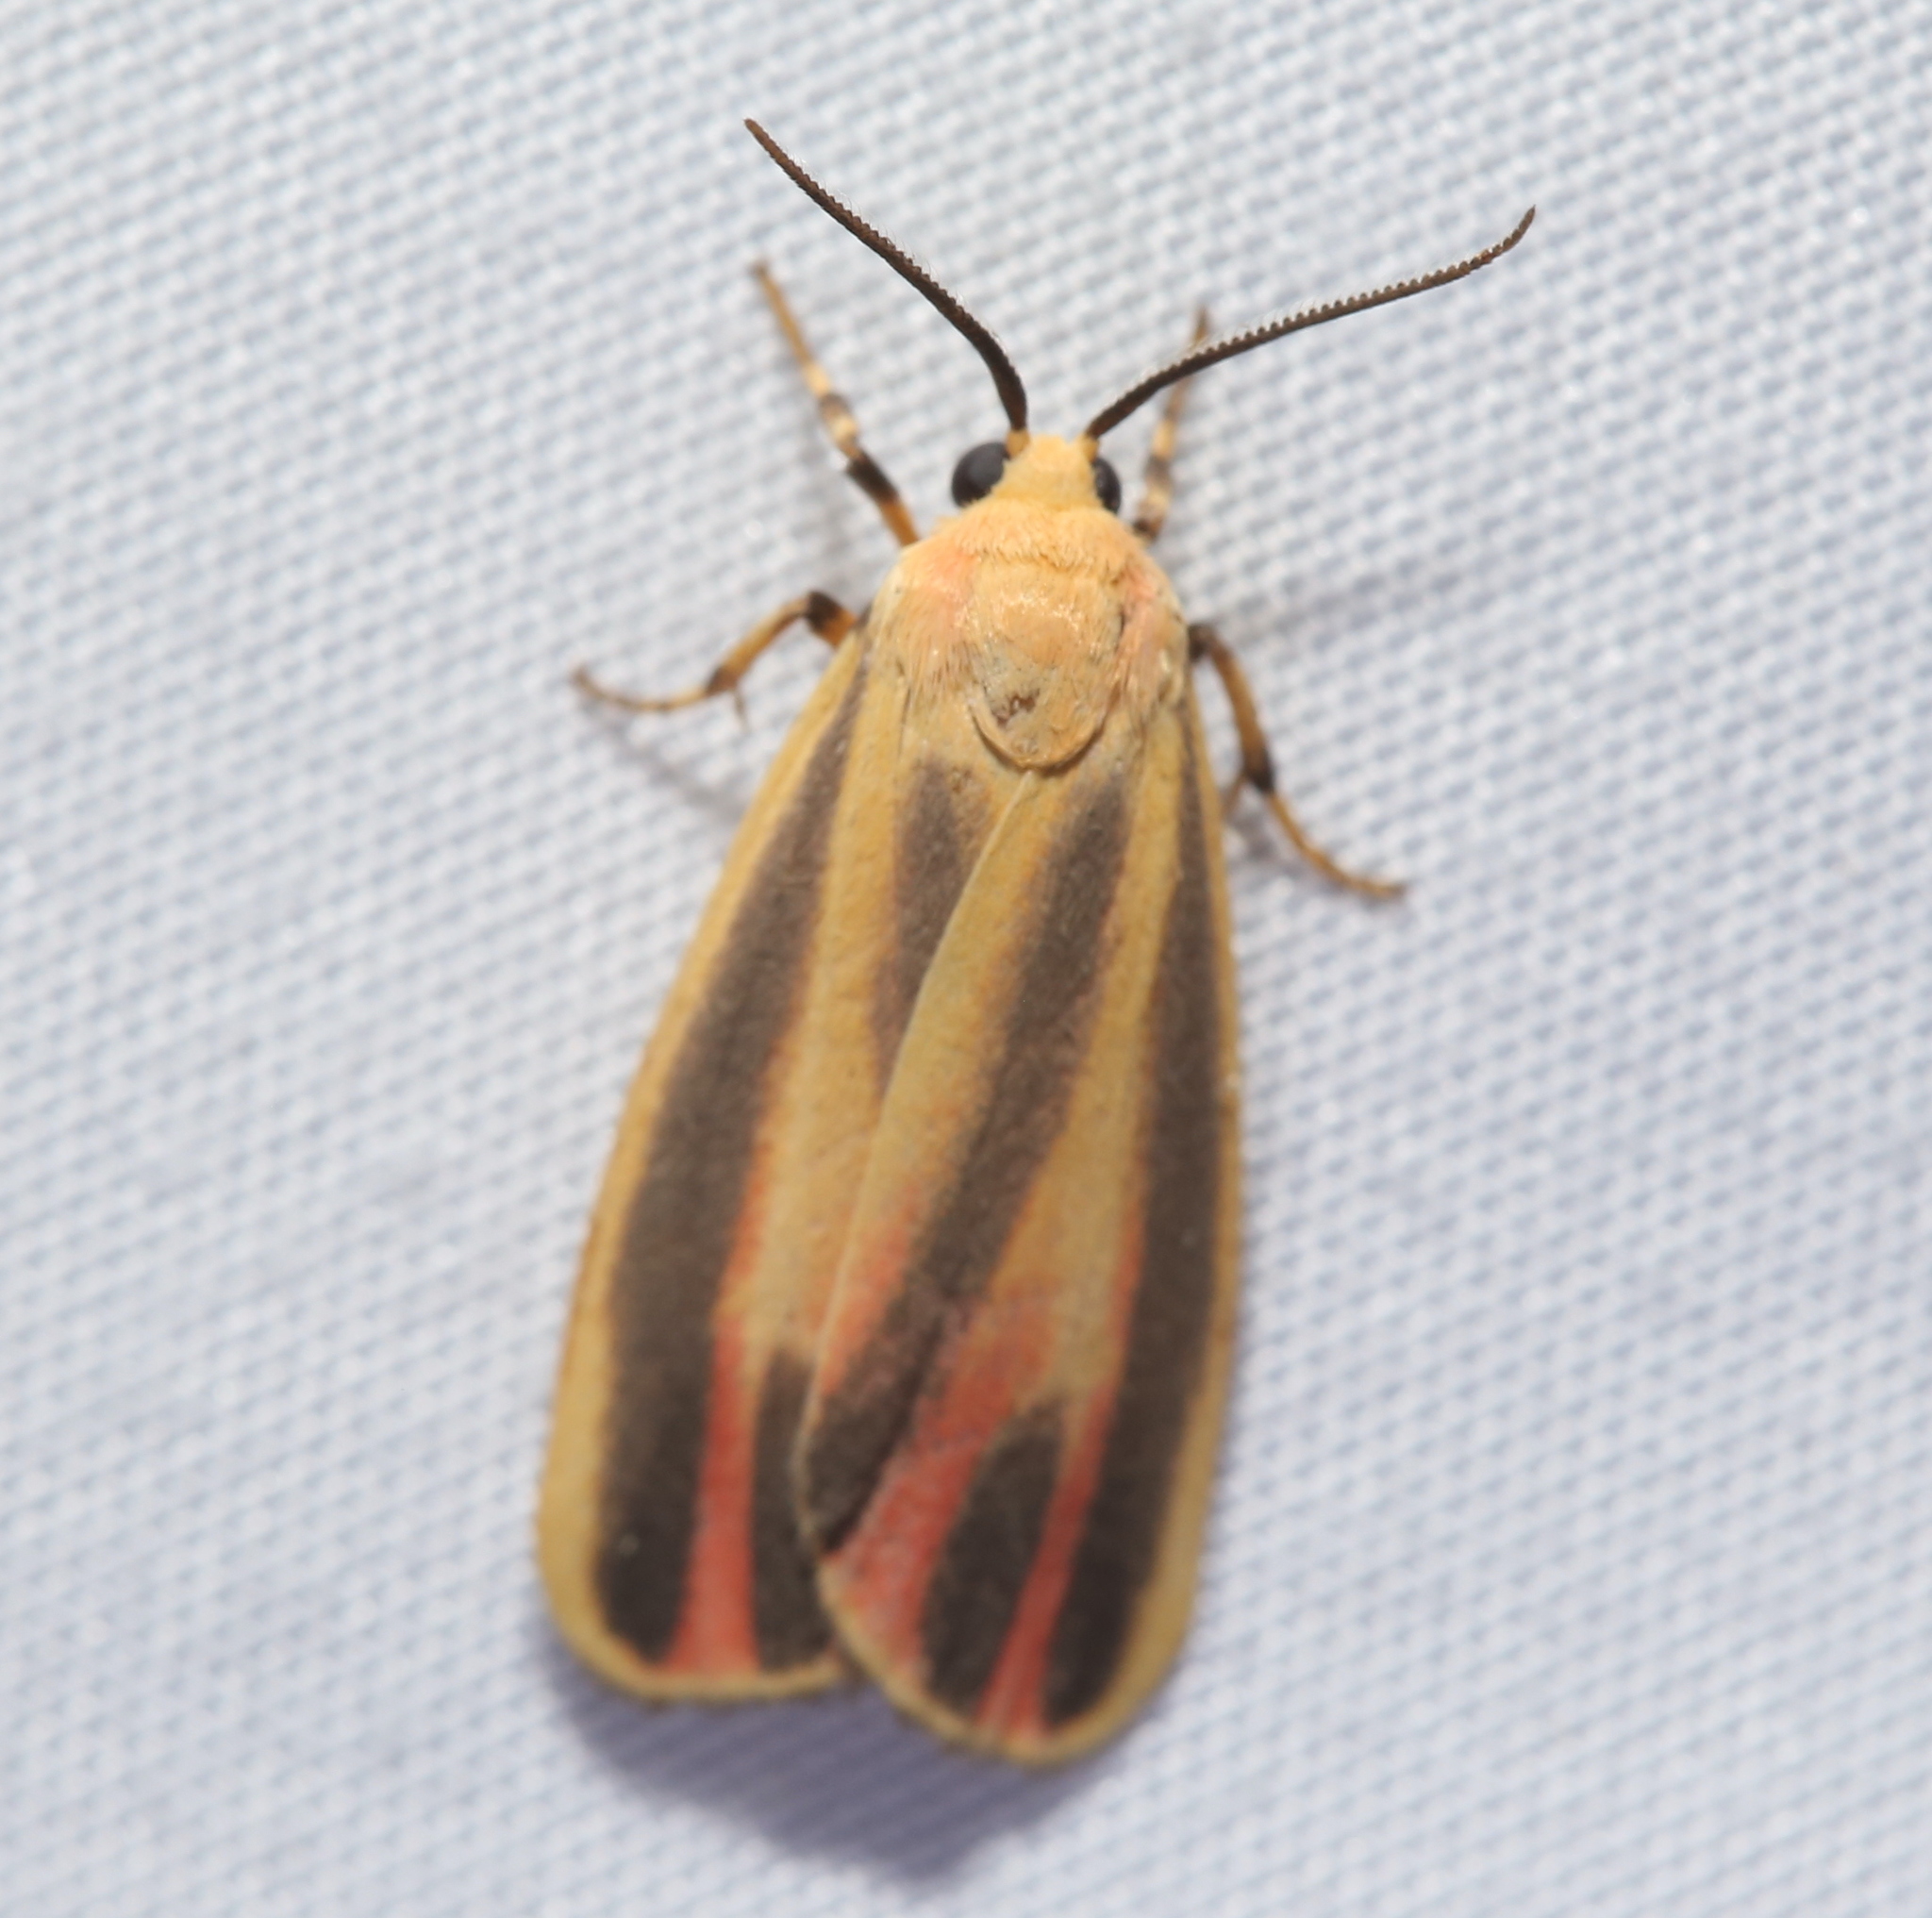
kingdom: Animalia
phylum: Arthropoda
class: Insecta
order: Lepidoptera
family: Erebidae
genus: Hypoprepia
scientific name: Hypoprepia fucosa
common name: Painted lichen moth
